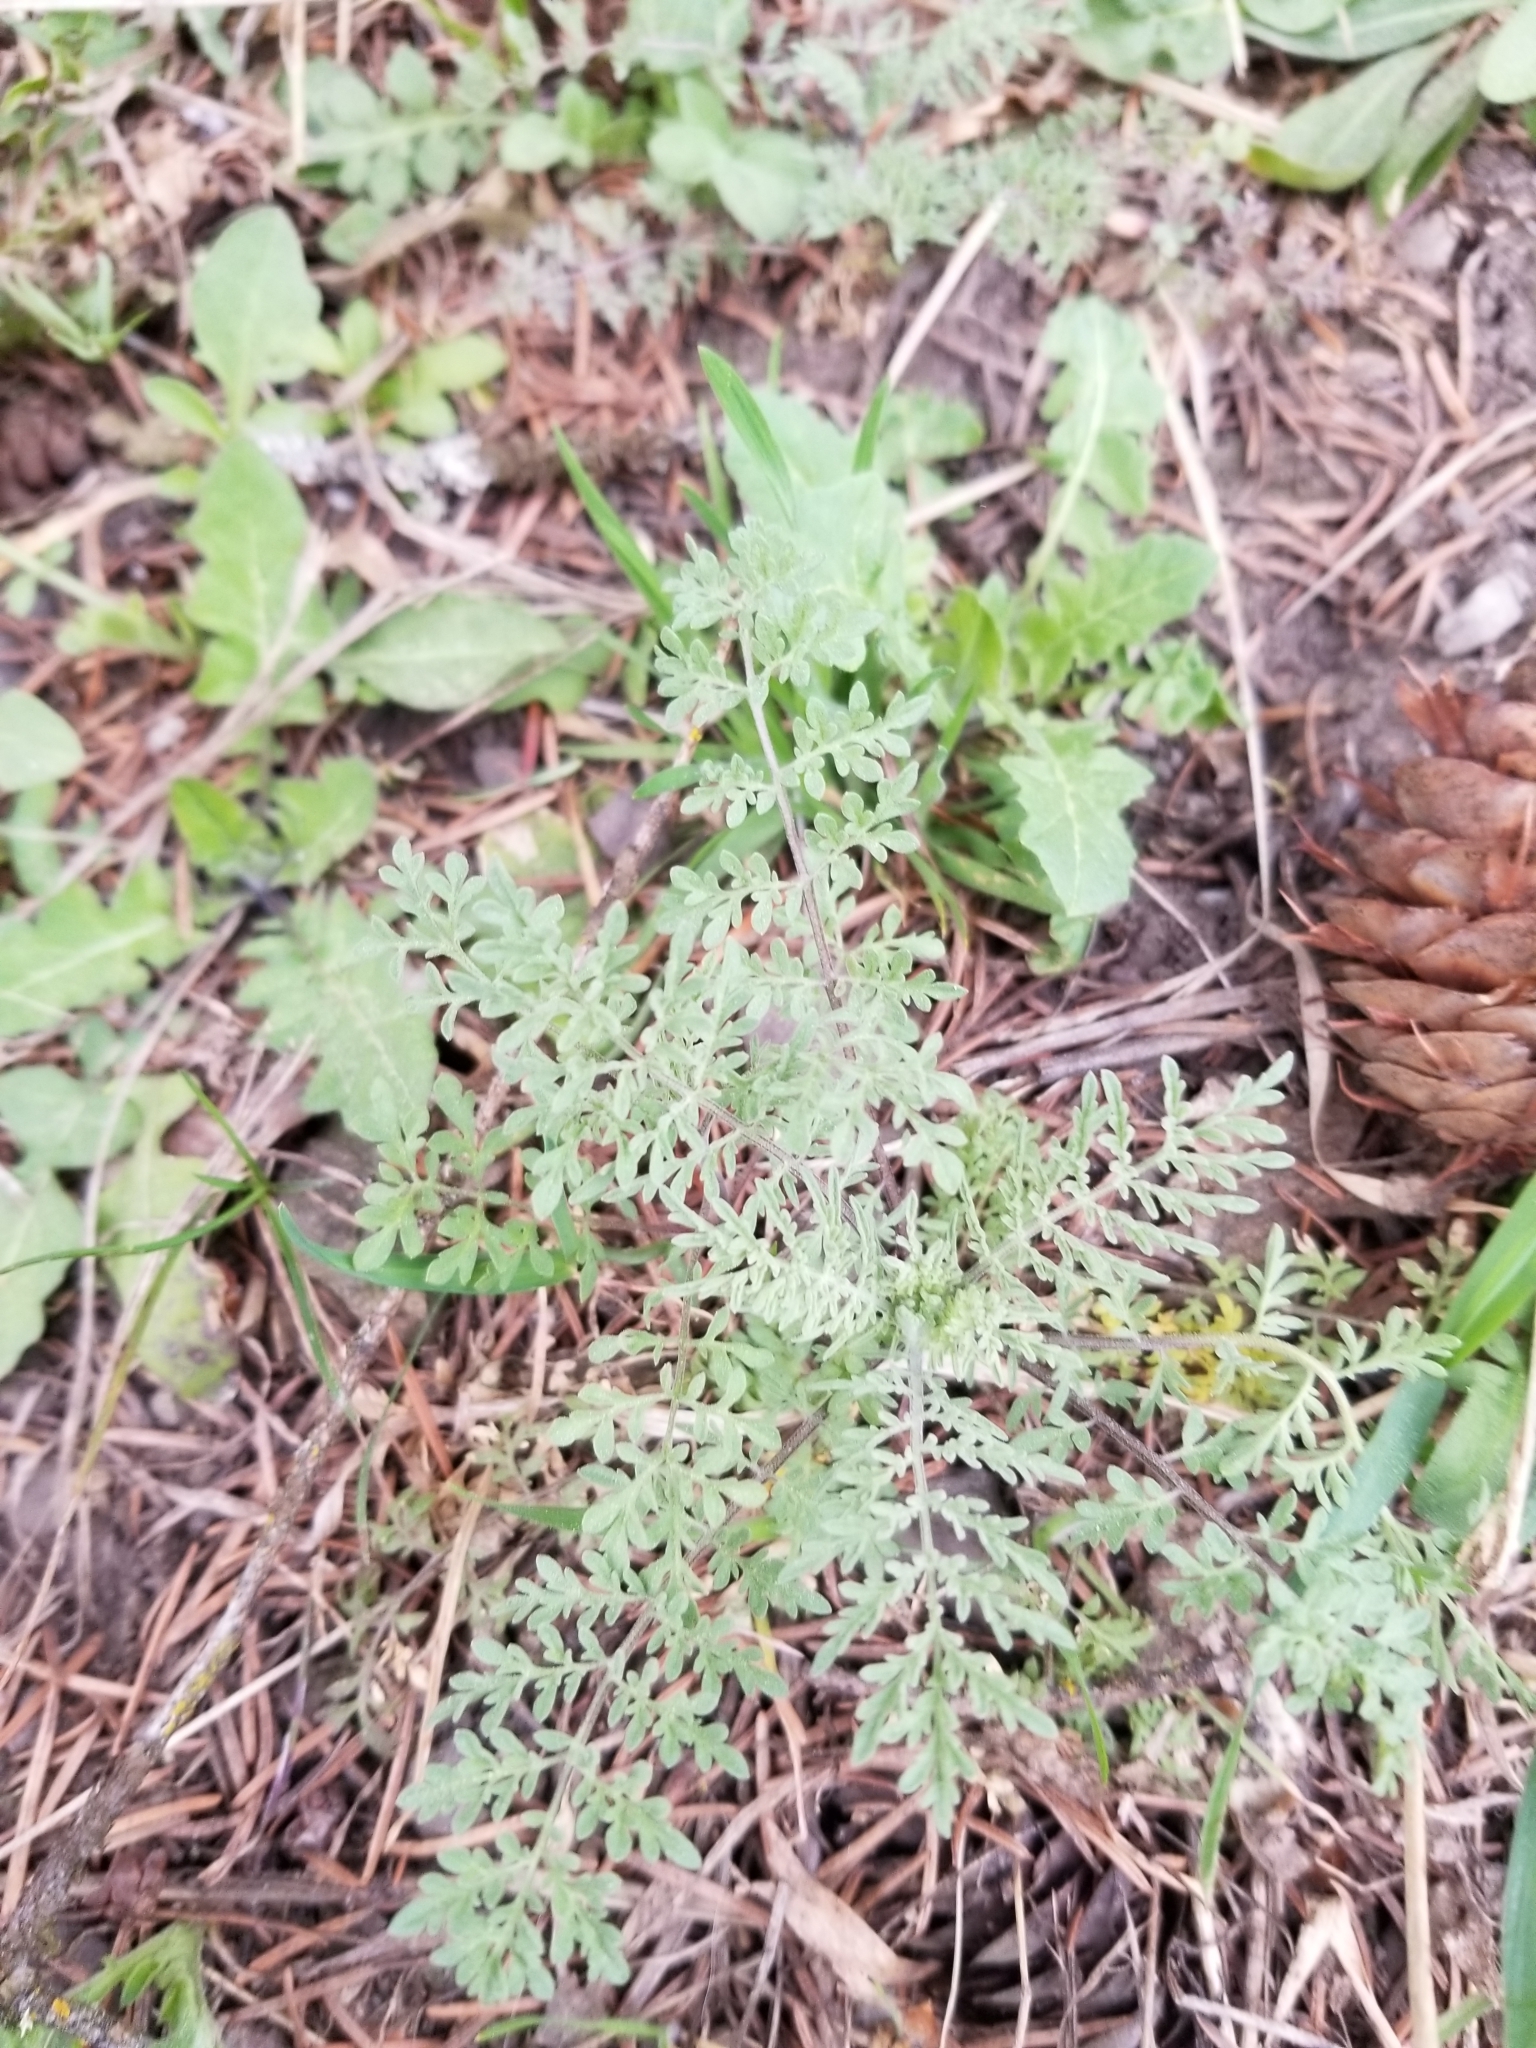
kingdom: Plantae
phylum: Tracheophyta
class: Magnoliopsida
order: Brassicales
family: Brassicaceae
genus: Descurainia
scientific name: Descurainia sophia
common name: Flixweed
